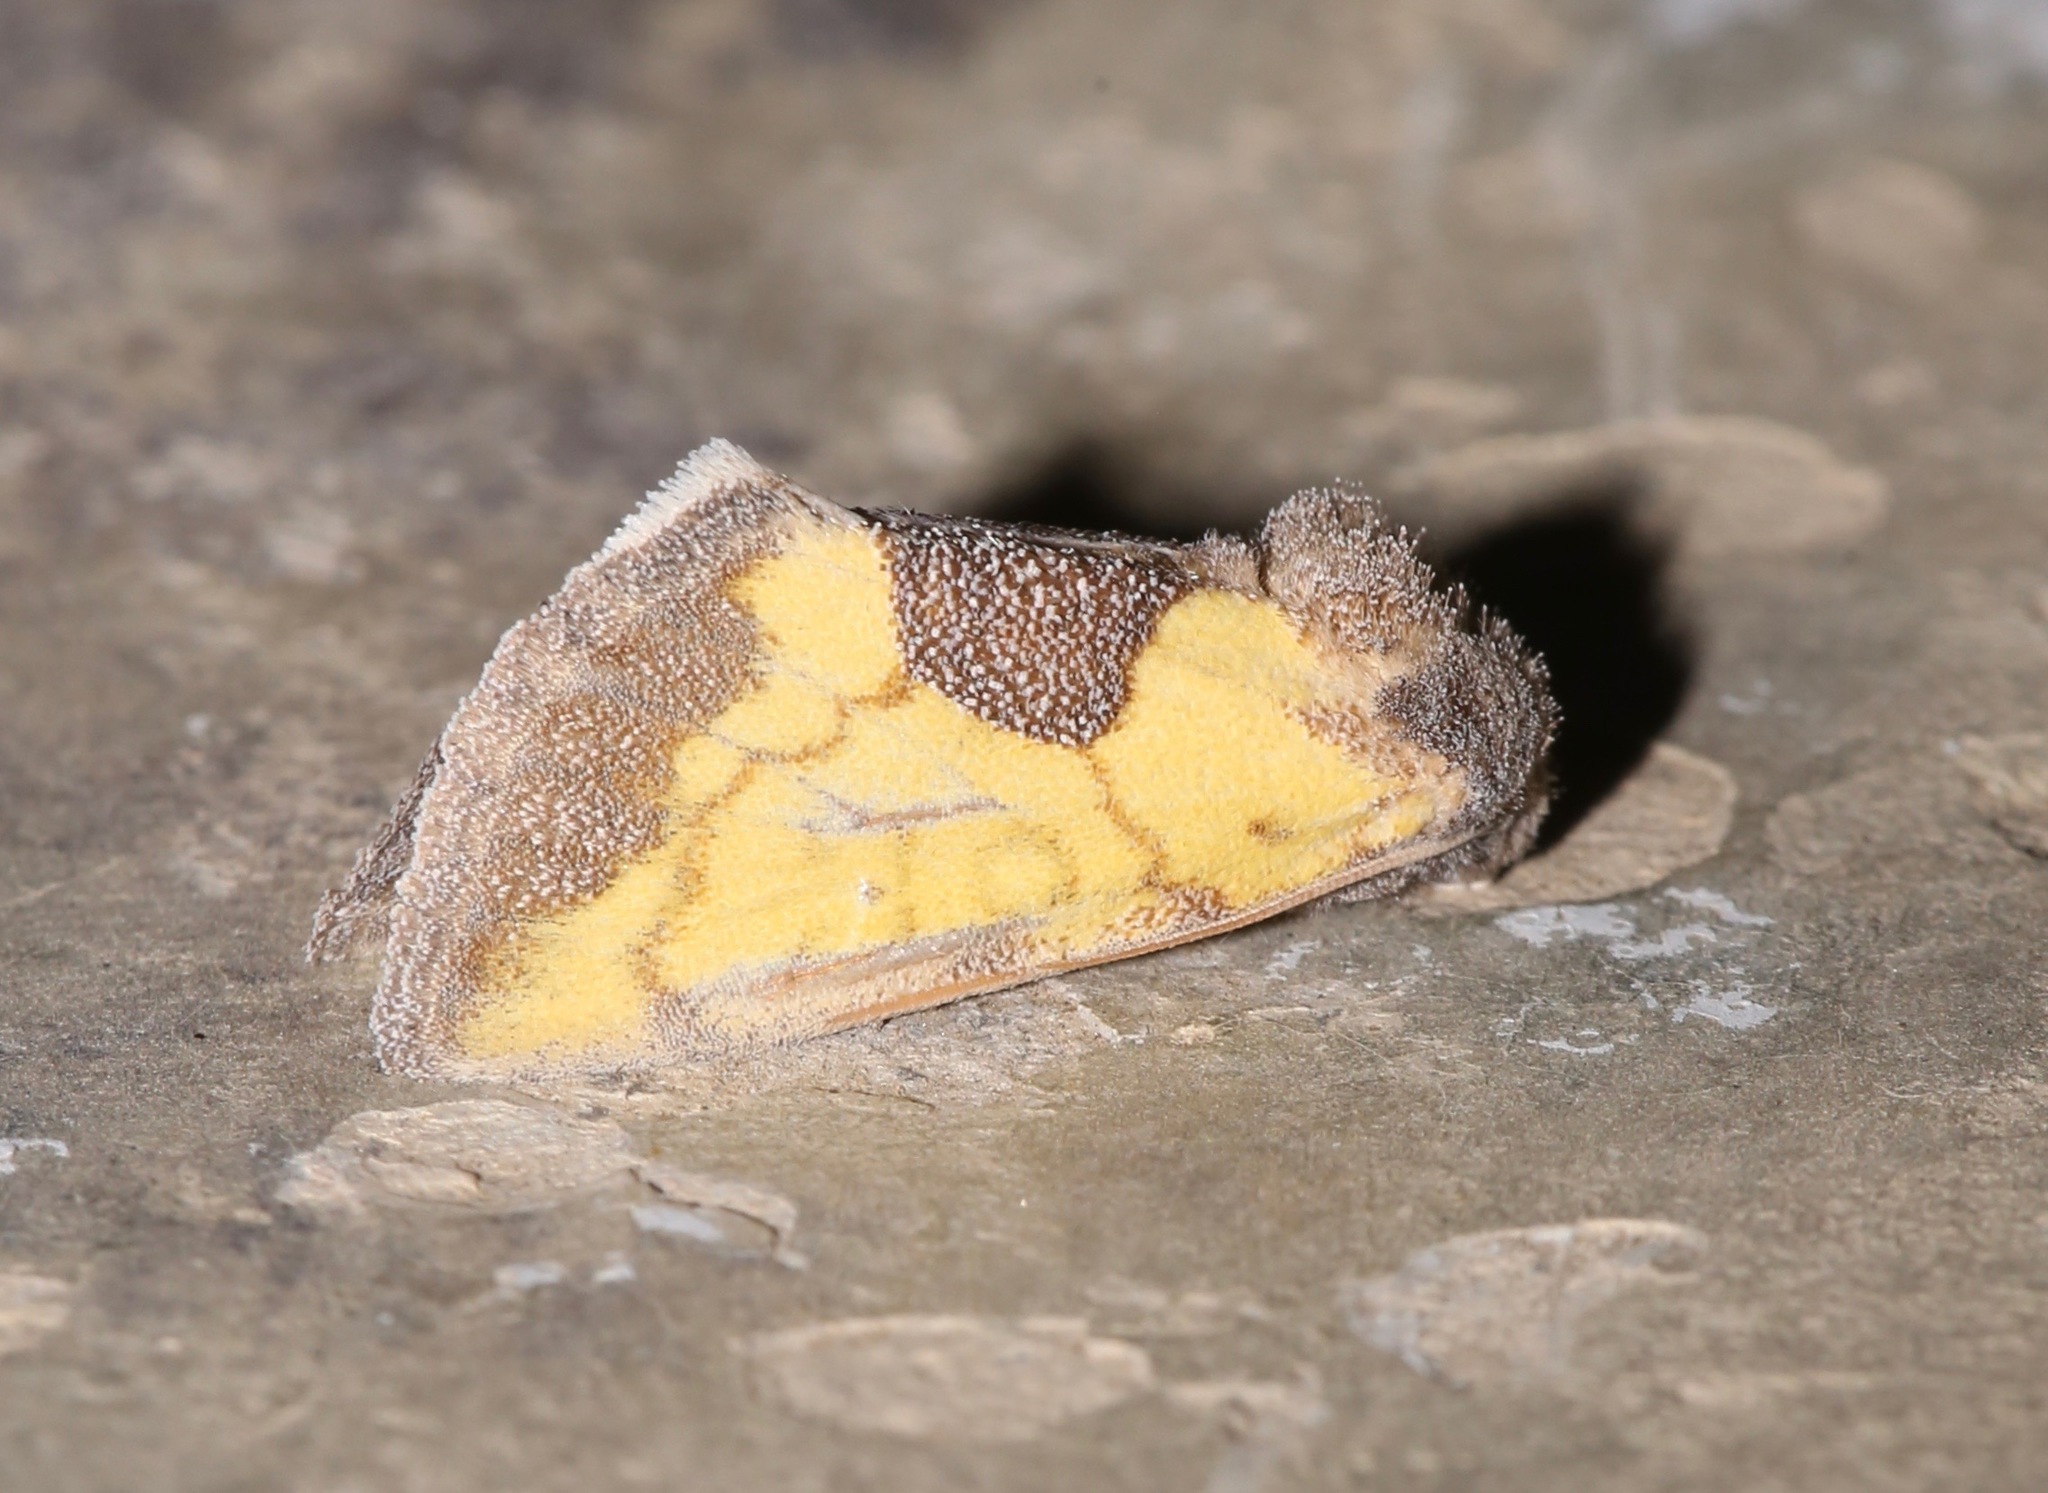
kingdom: Animalia
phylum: Arthropoda
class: Insecta
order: Lepidoptera
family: Noctuidae
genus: Stiria
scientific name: Stiria dyari
